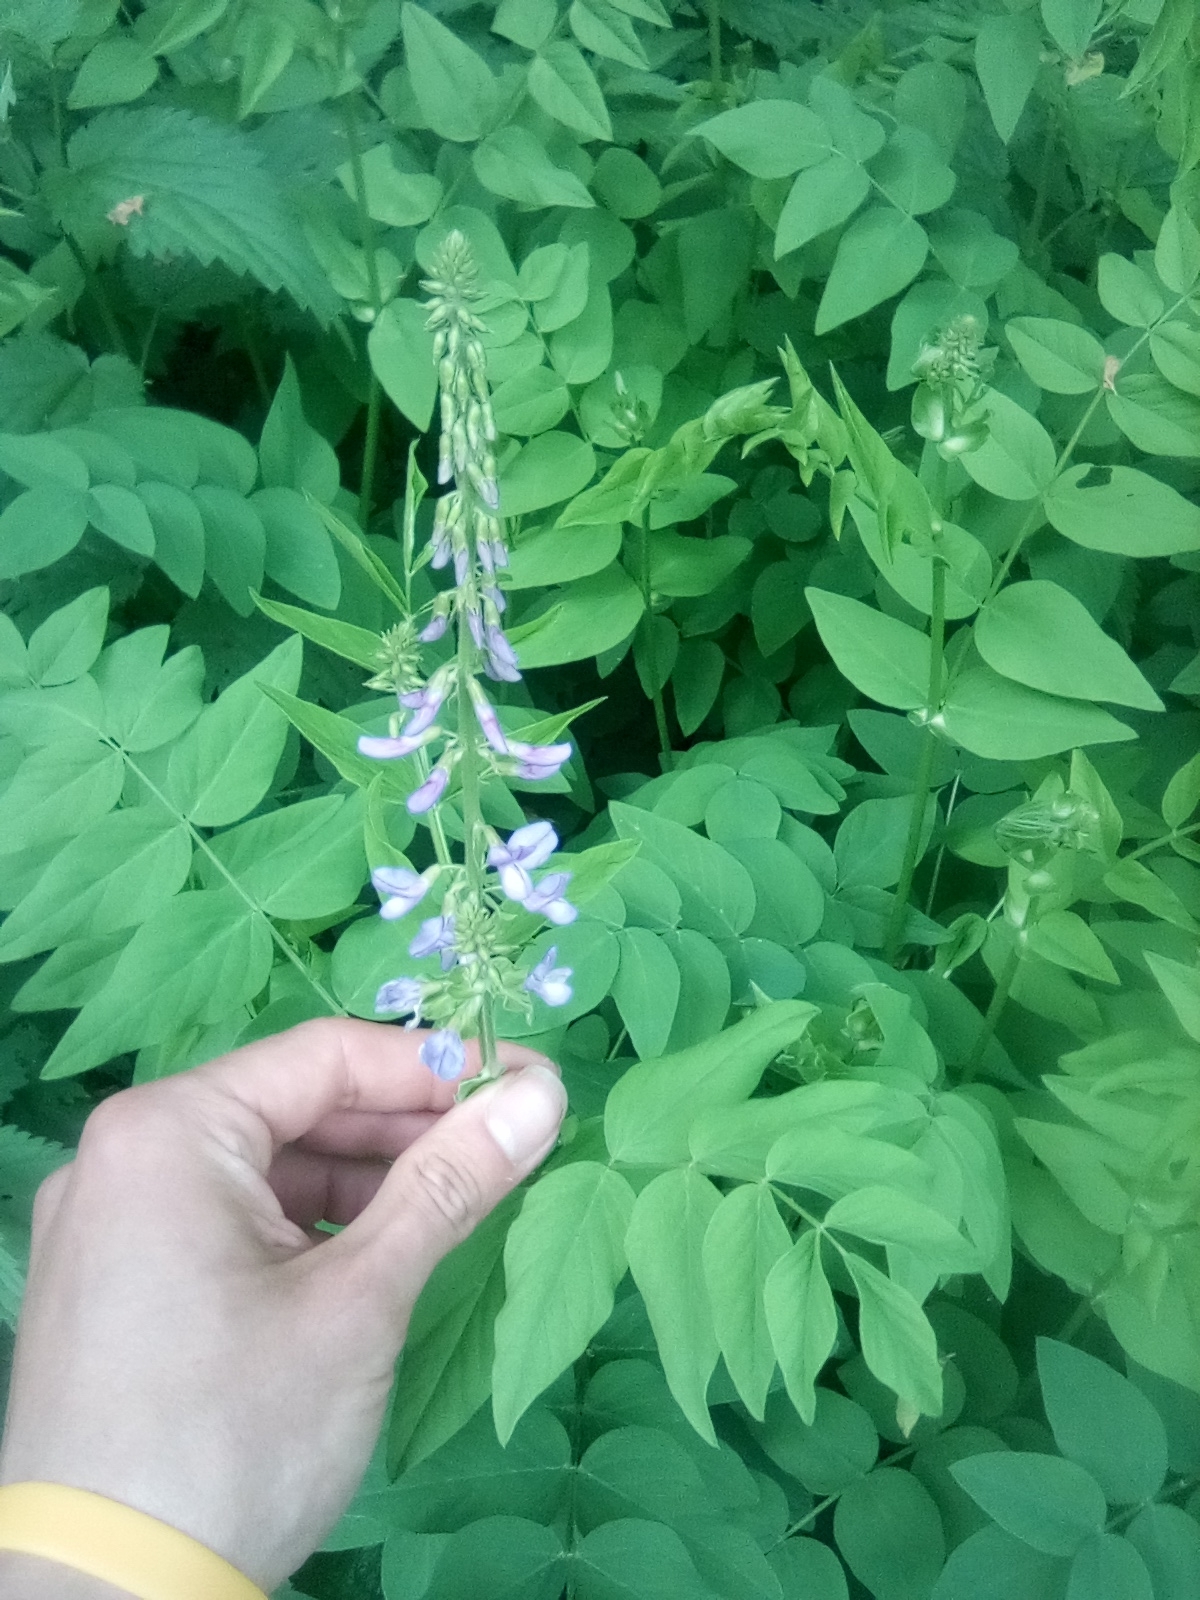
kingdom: Plantae
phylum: Tracheophyta
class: Magnoliopsida
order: Fabales
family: Fabaceae
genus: Galega
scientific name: Galega orientalis
